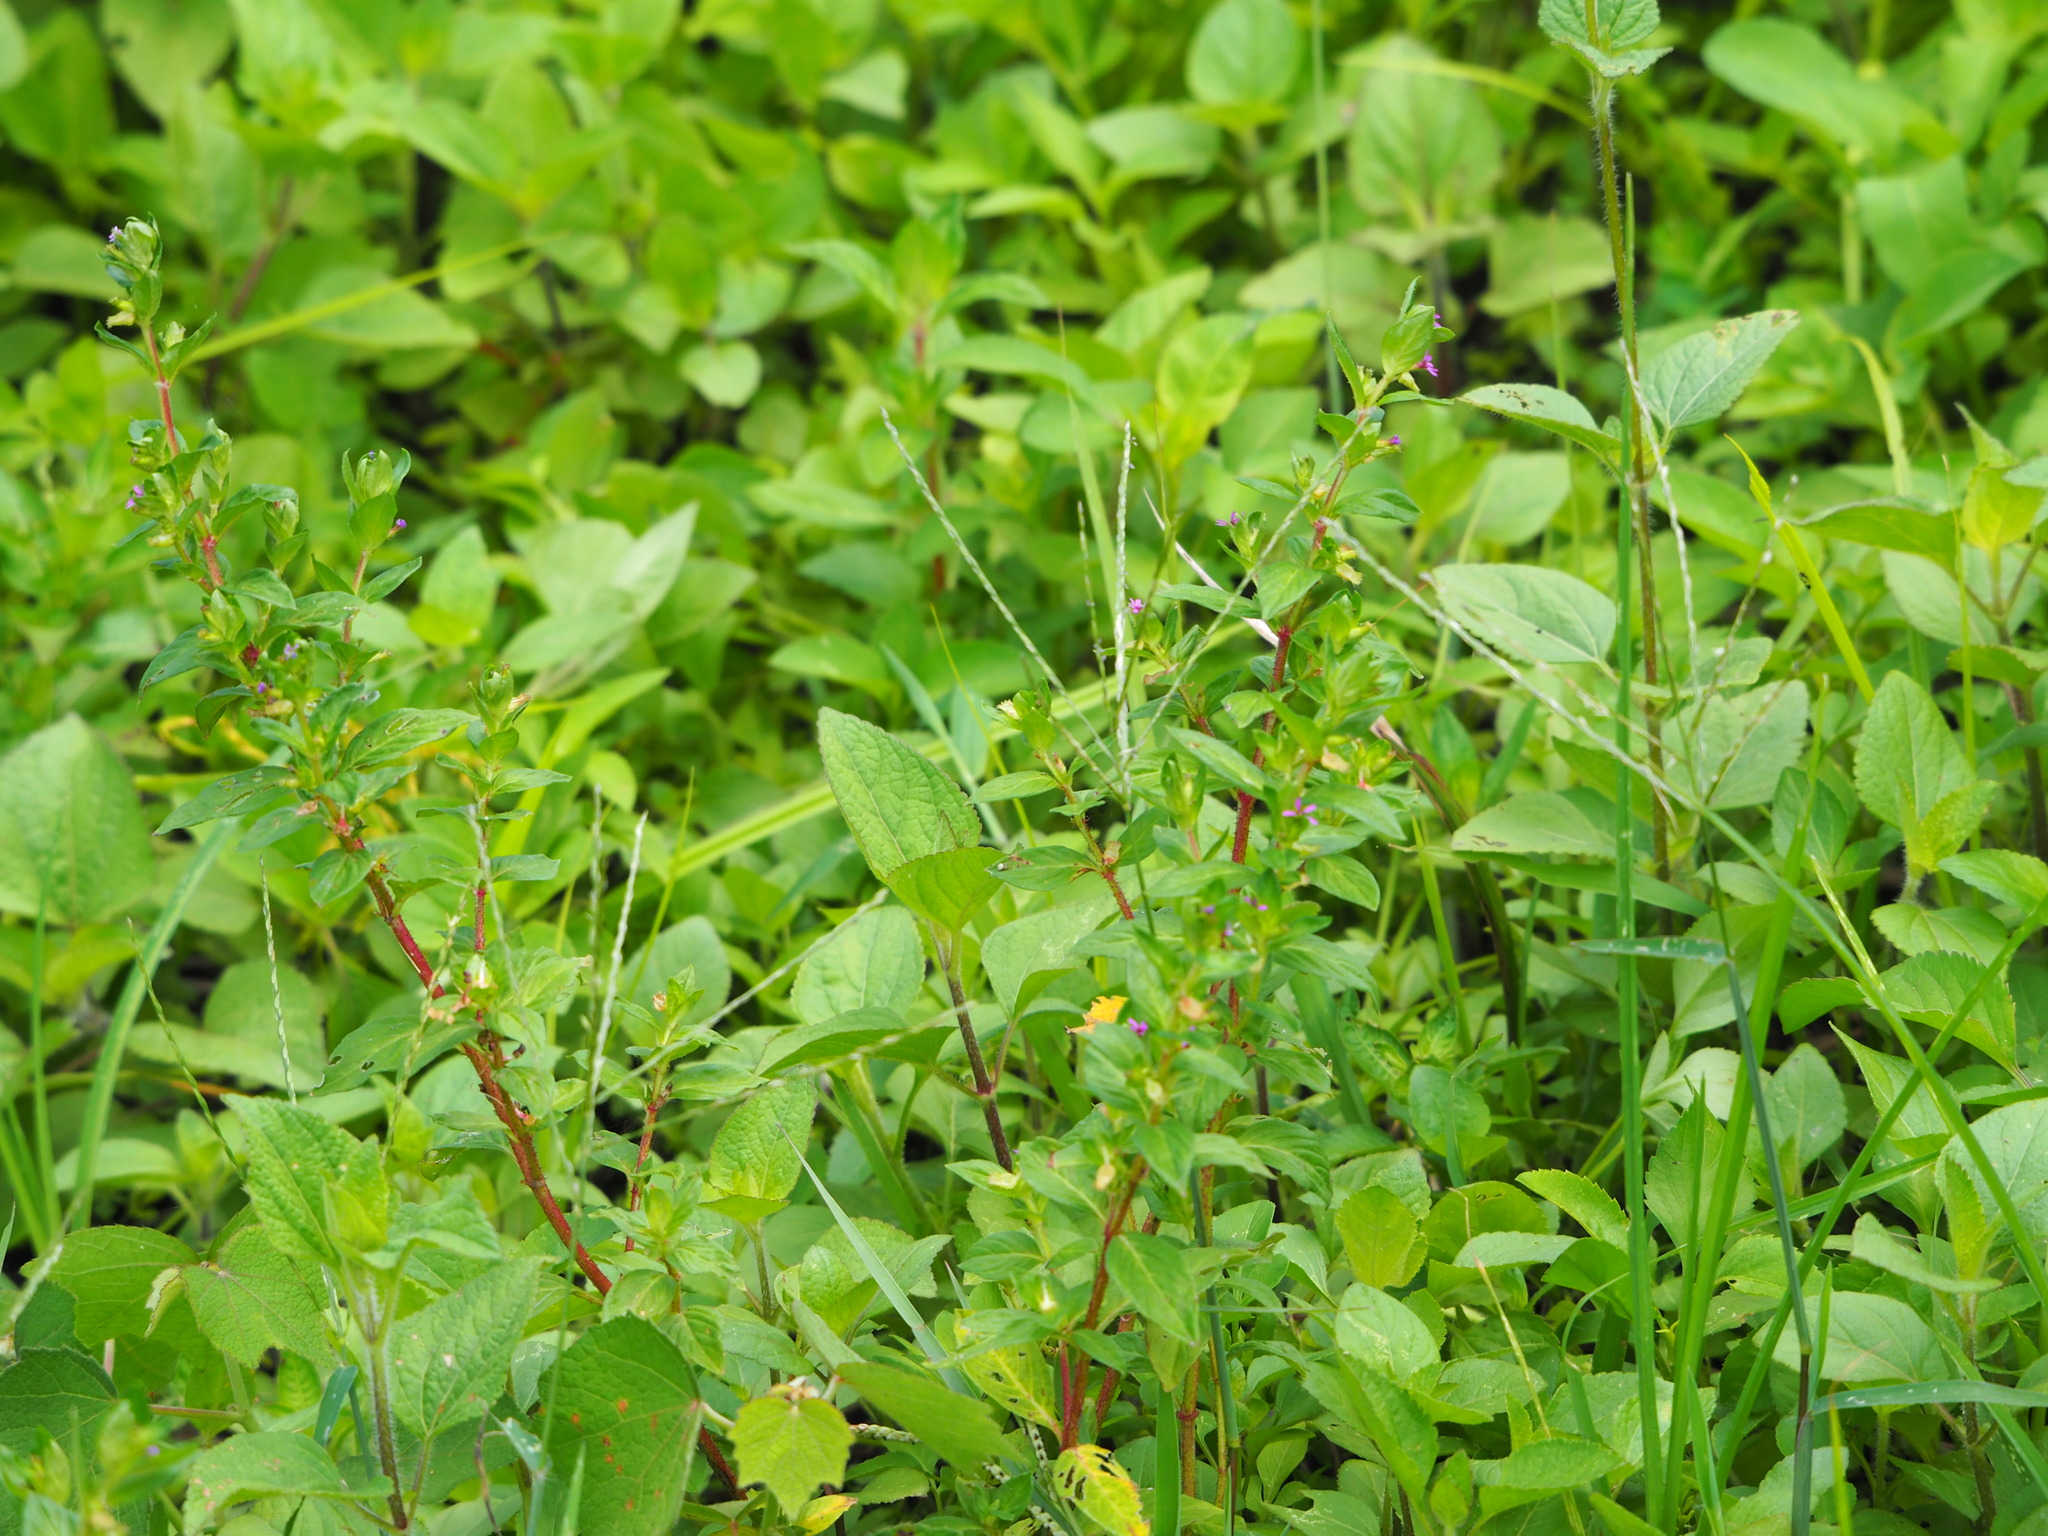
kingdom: Plantae
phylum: Tracheophyta
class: Magnoliopsida
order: Myrtales
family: Lythraceae
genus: Cuphea
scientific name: Cuphea carthagenensis
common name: Colombian waxweed
